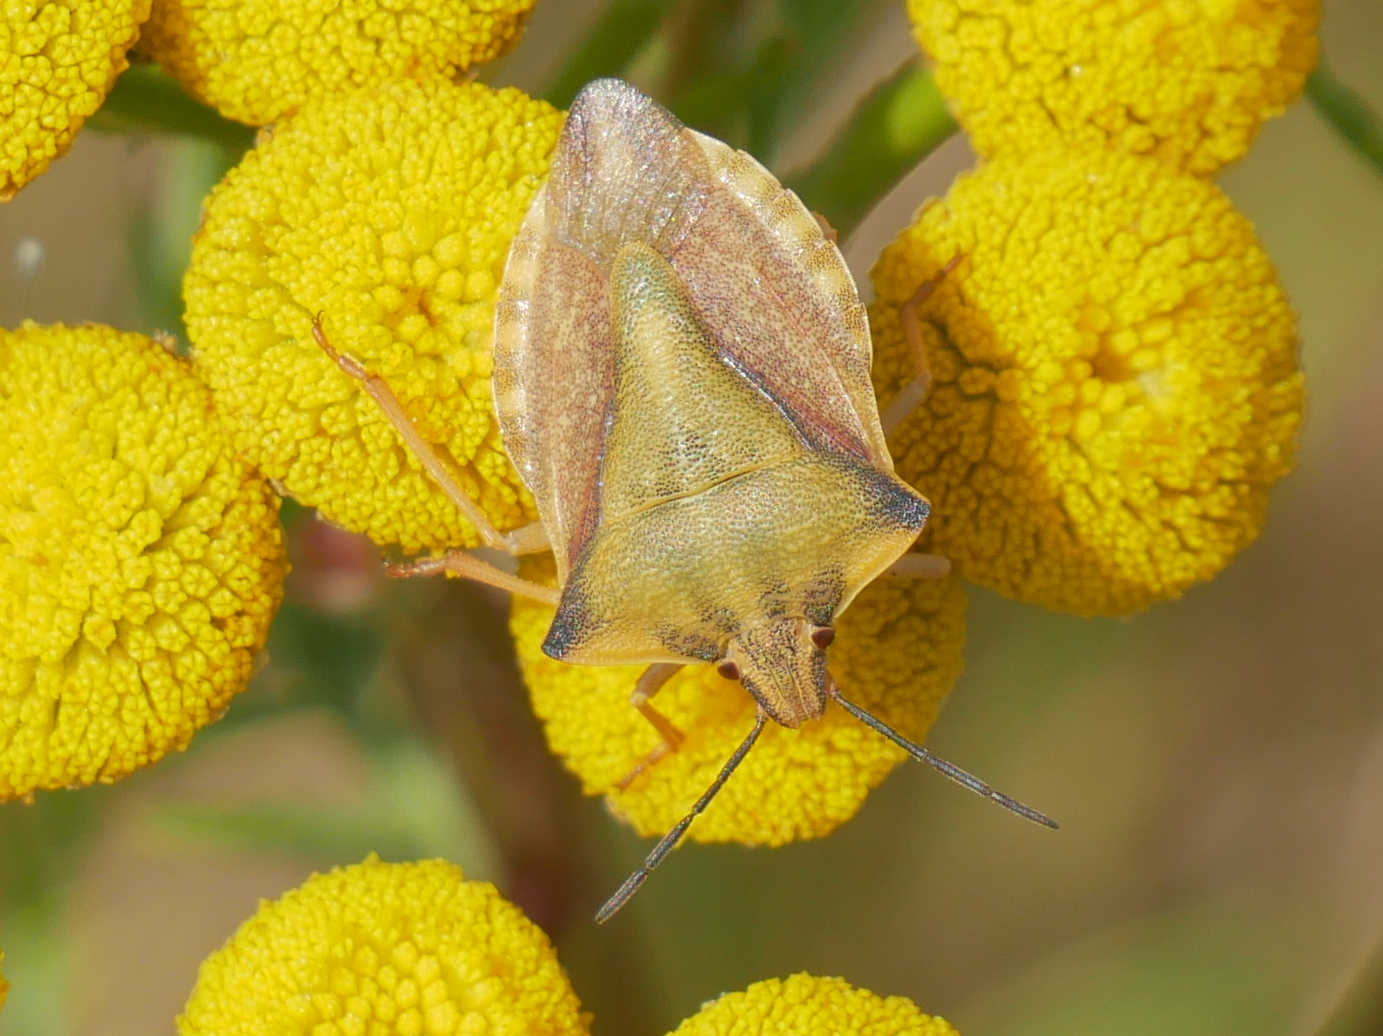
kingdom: Animalia
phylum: Arthropoda
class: Insecta
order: Hemiptera
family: Pentatomidae
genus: Carpocoris
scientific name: Carpocoris fuscispinus
